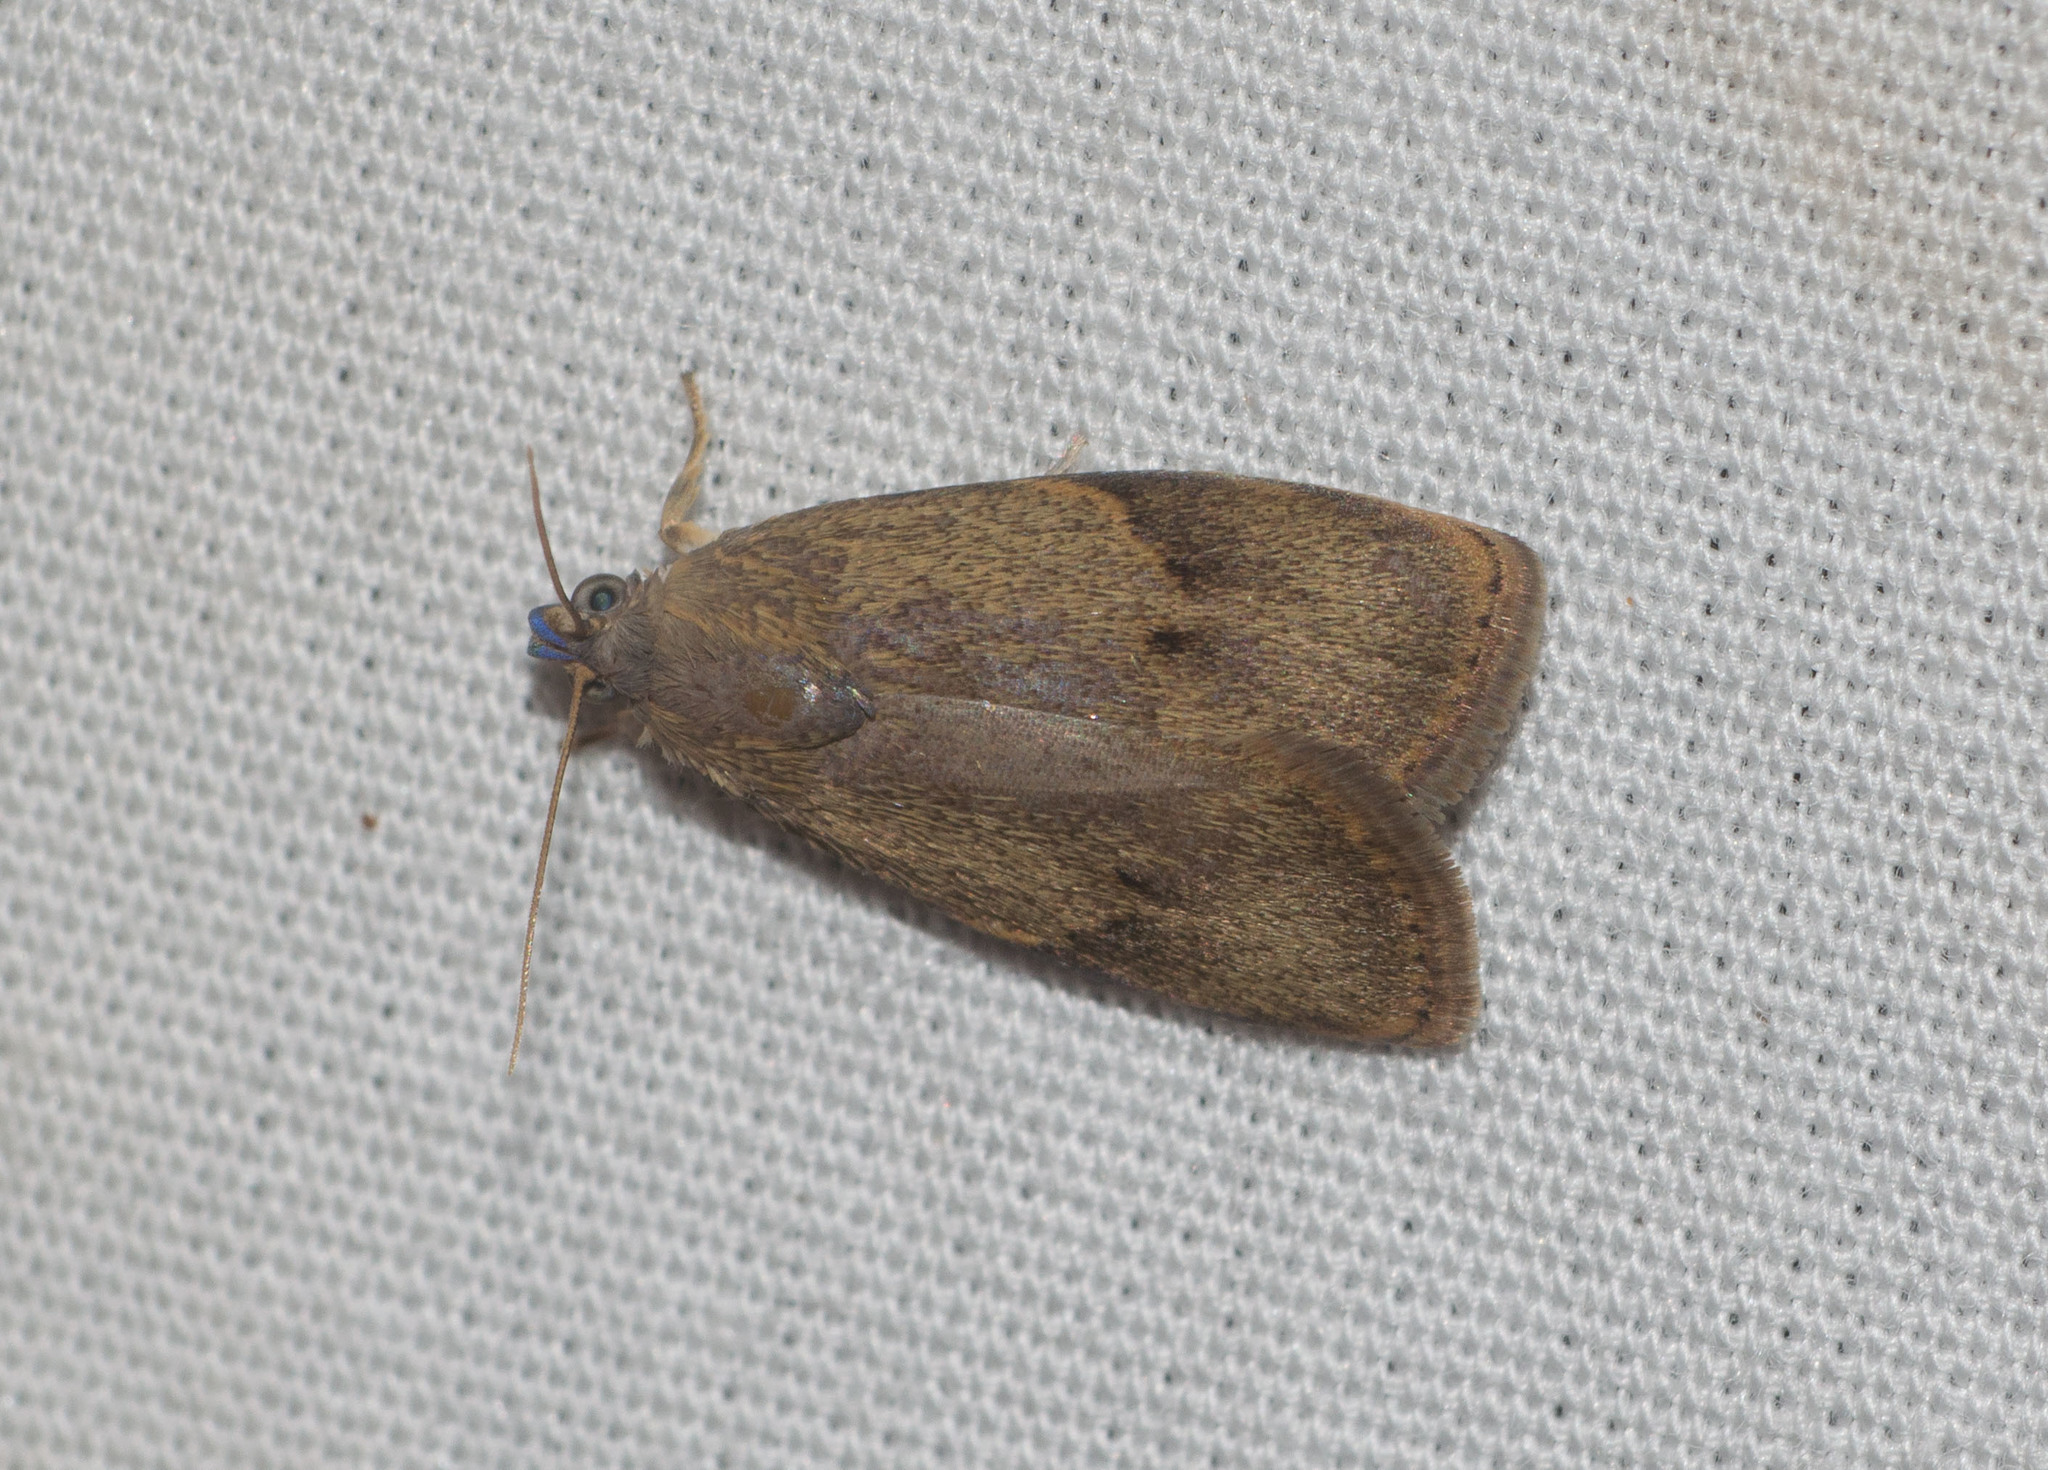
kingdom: Animalia
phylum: Arthropoda
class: Insecta
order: Lepidoptera
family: Immidae
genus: Imma
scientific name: Imma mylias
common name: Moth
